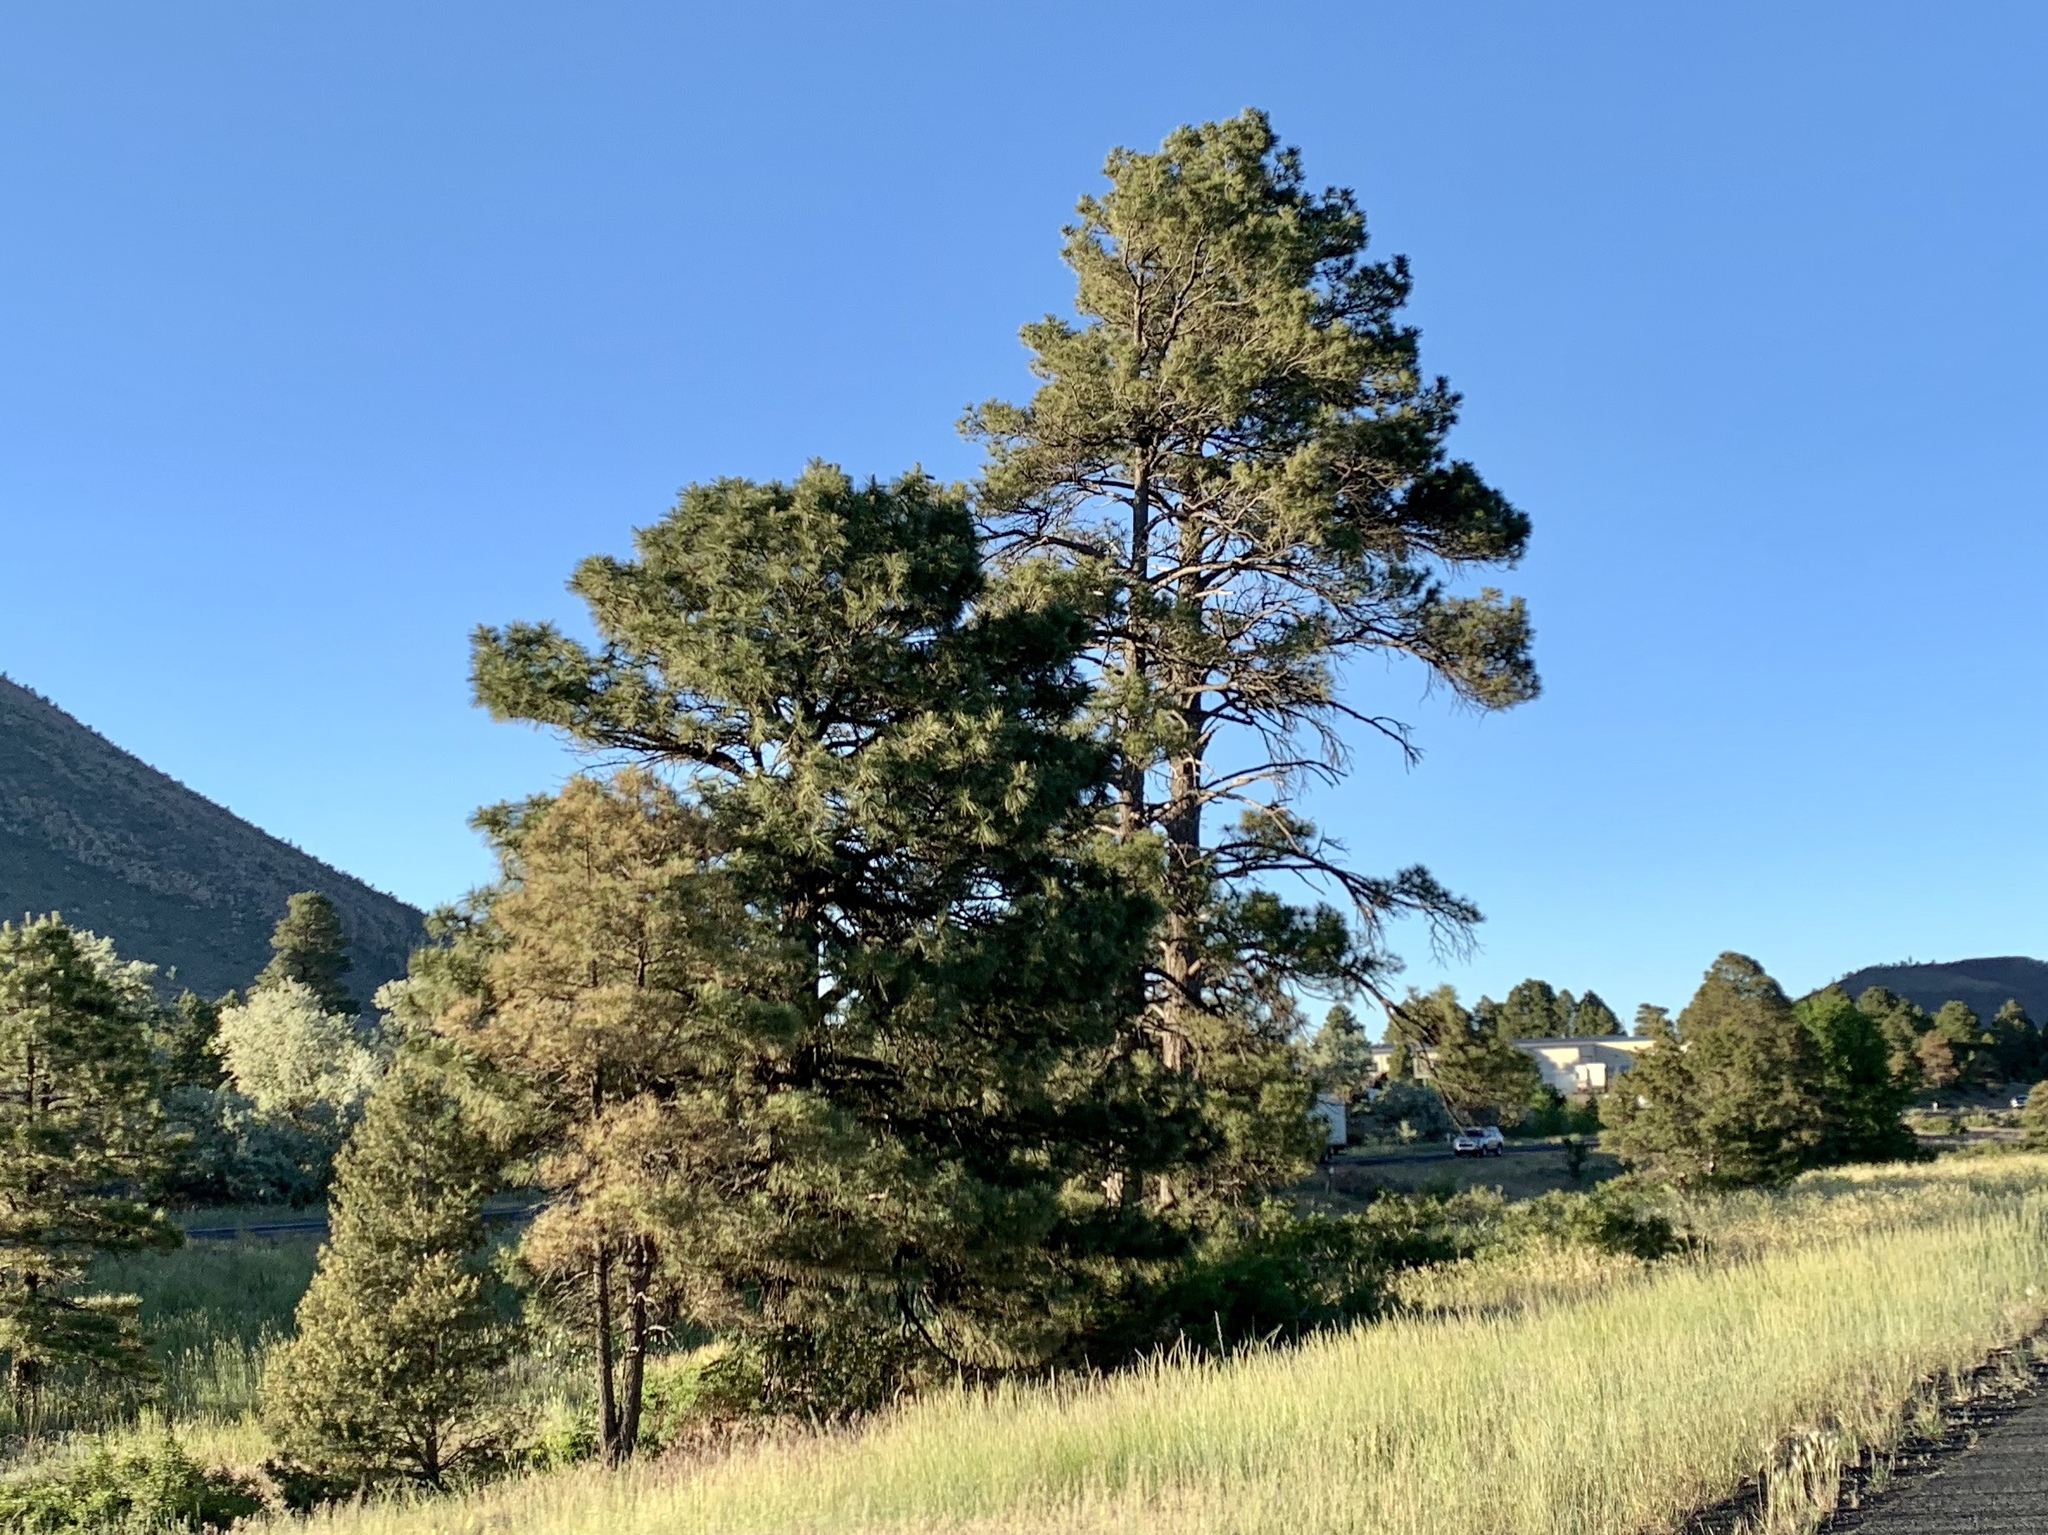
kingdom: Plantae
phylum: Tracheophyta
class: Pinopsida
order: Pinales
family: Pinaceae
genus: Pinus
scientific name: Pinus ponderosa
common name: Western yellow-pine
